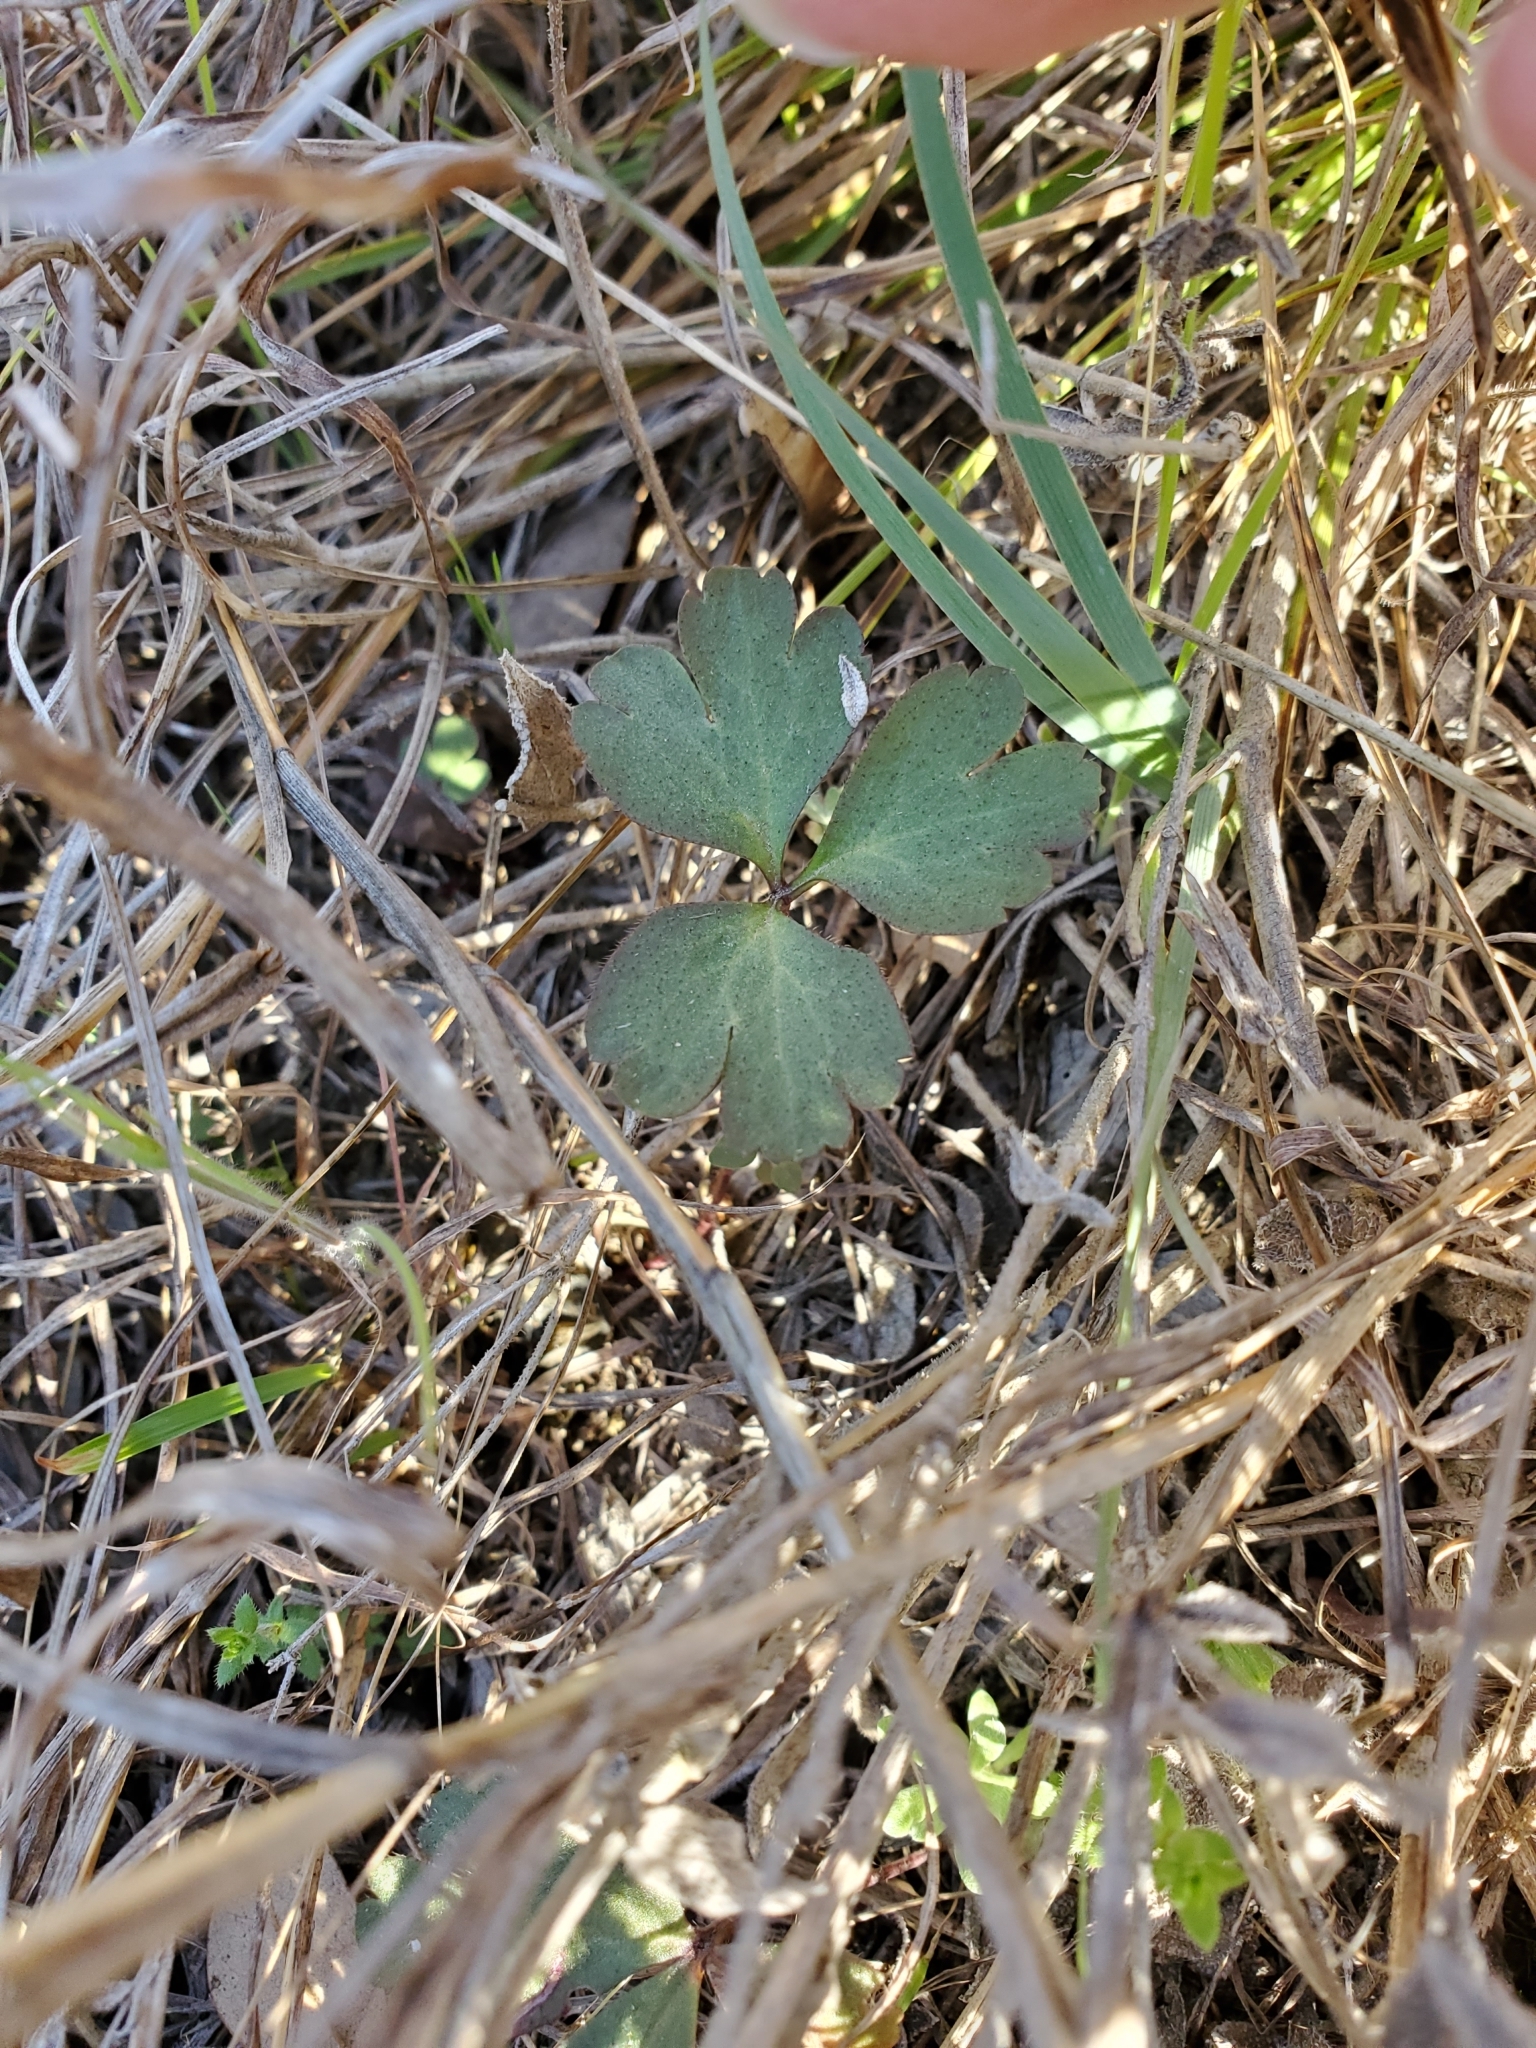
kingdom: Plantae
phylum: Tracheophyta
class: Magnoliopsida
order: Ranunculales
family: Ranunculaceae
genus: Anemone
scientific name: Anemone berlandieri
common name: Ten-petal anemone
